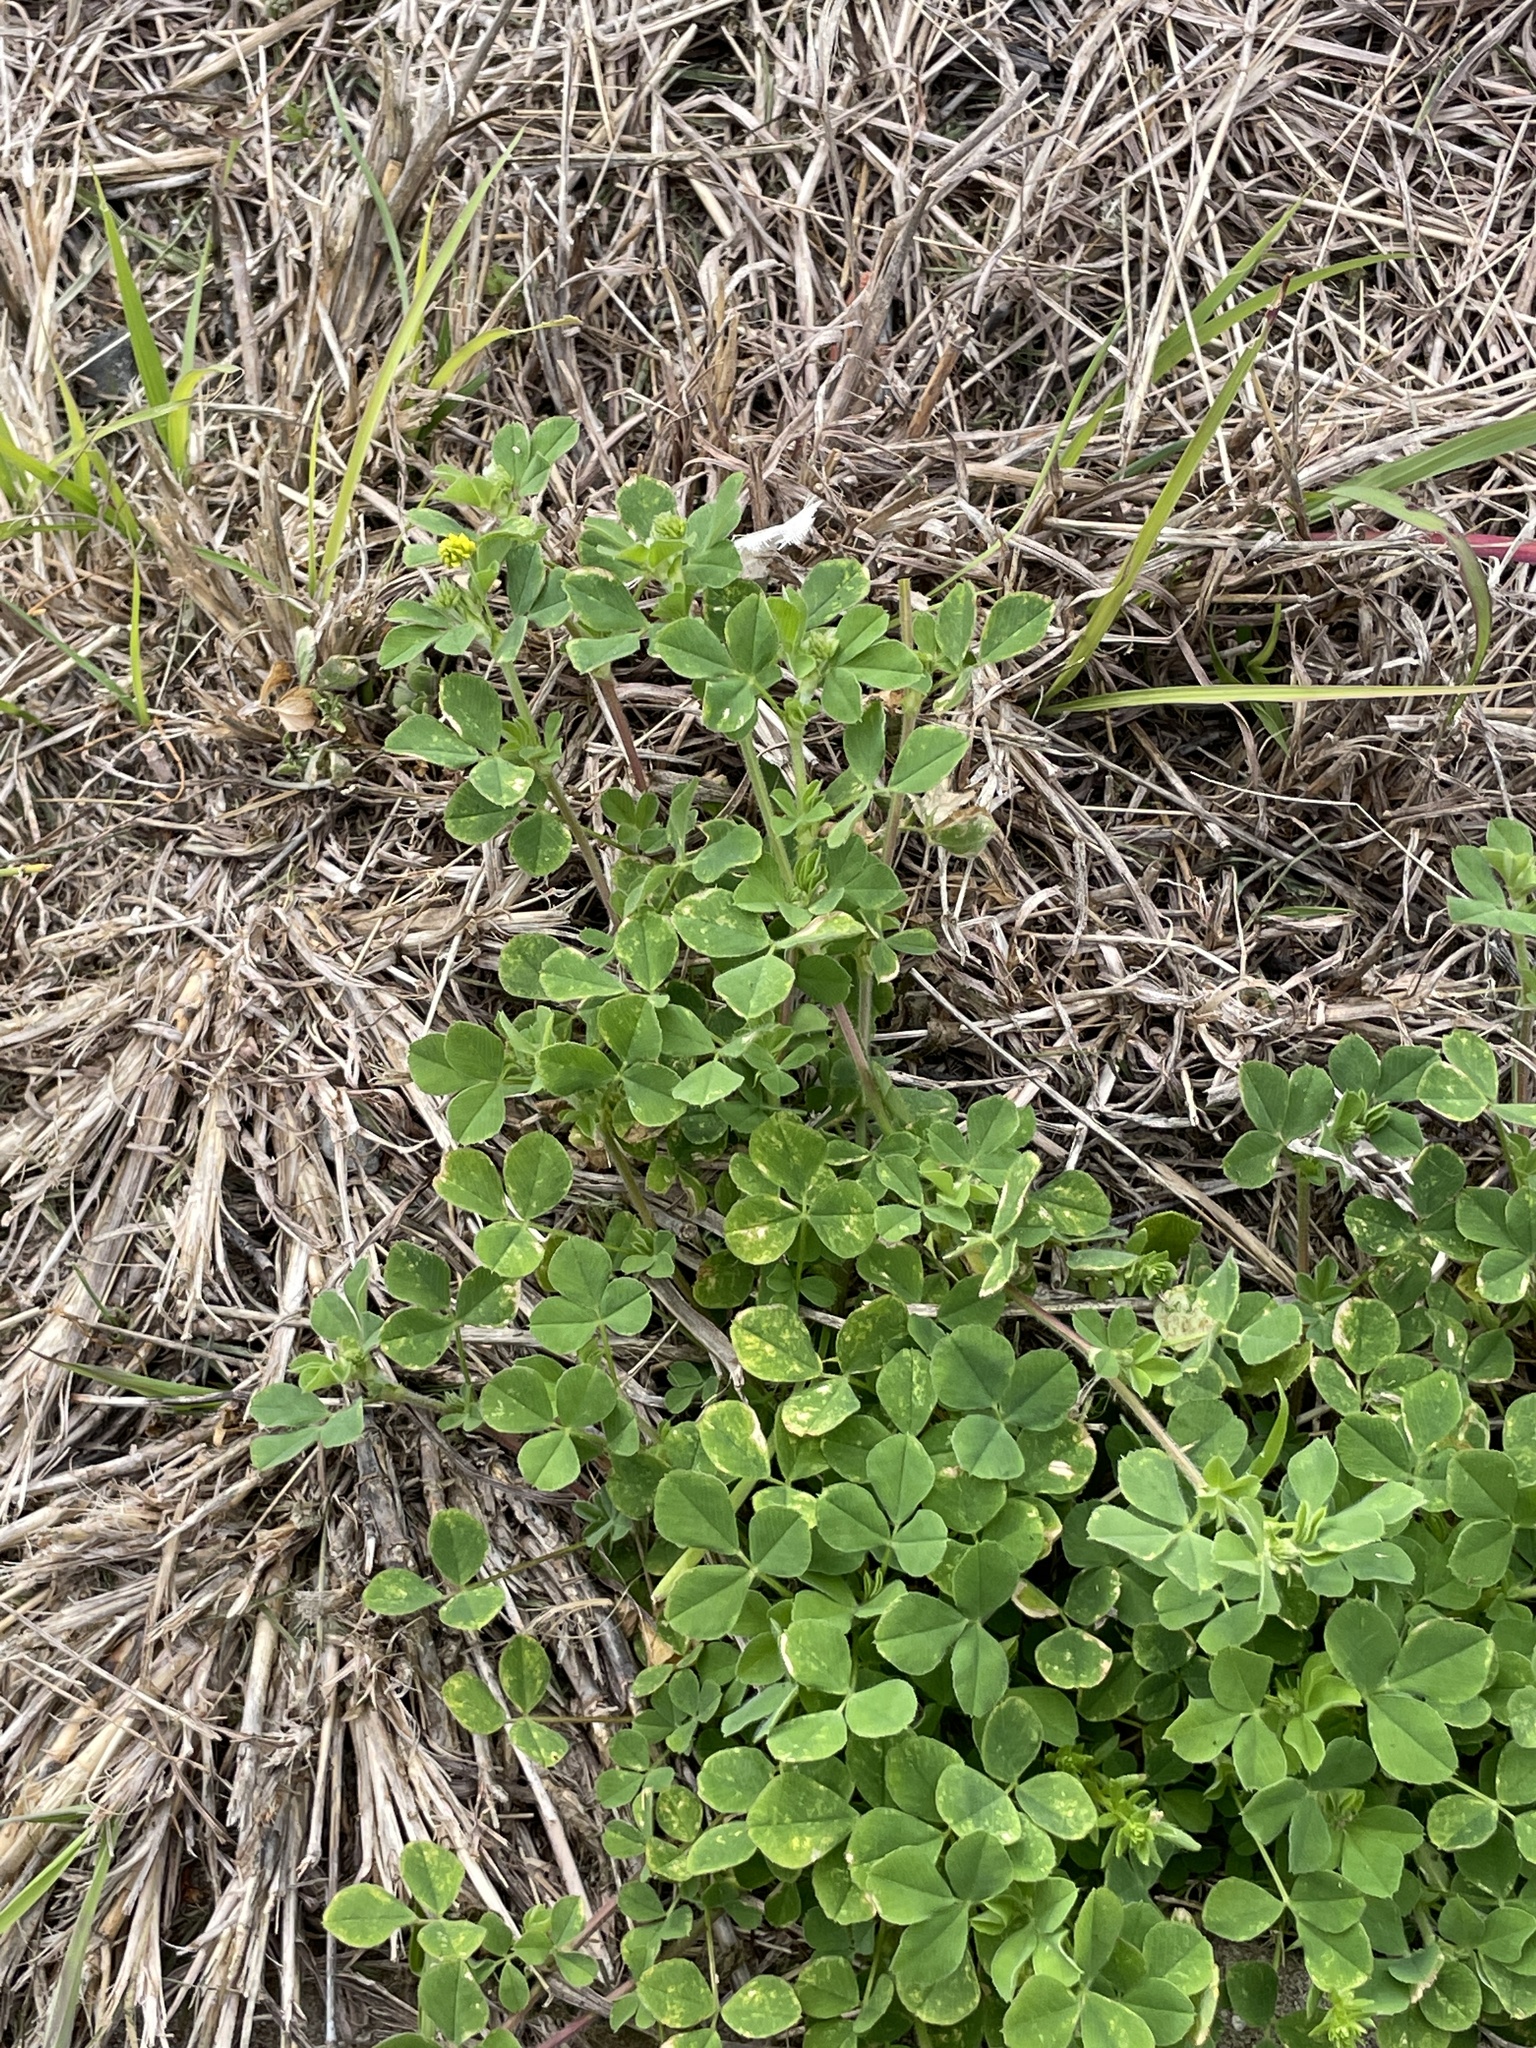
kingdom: Plantae
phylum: Tracheophyta
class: Magnoliopsida
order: Fabales
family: Fabaceae
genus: Medicago
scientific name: Medicago lupulina
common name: Black medick
